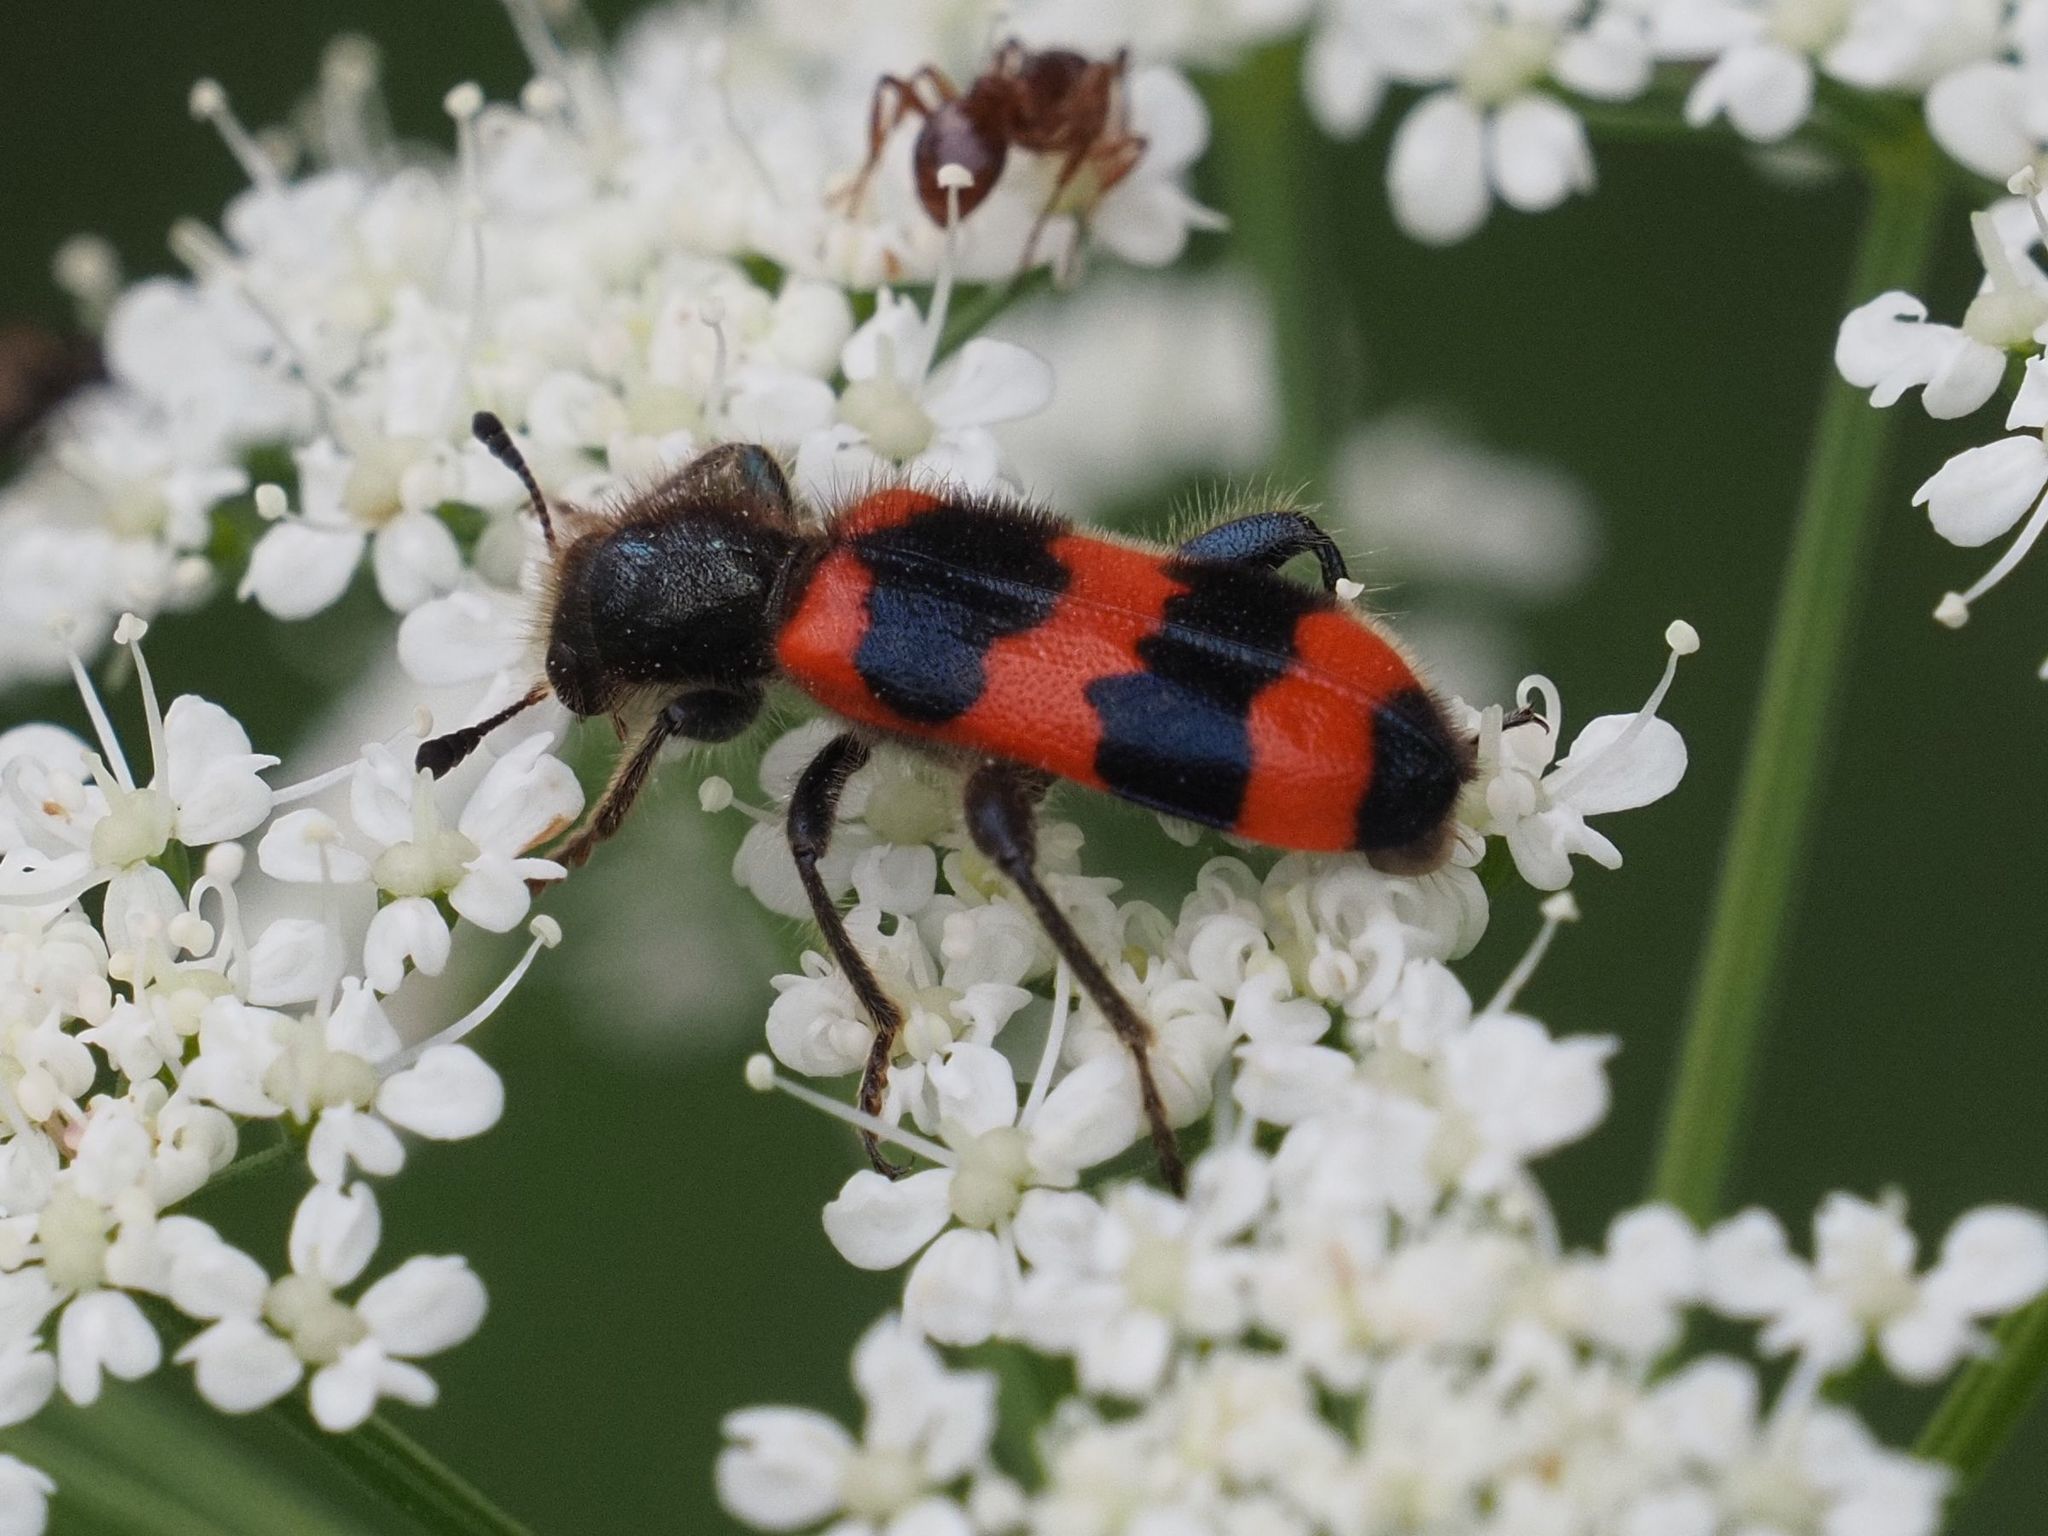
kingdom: Animalia
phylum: Arthropoda
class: Insecta
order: Coleoptera
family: Cleridae
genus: Trichodes
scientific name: Trichodes apiarius
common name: Bee-eating beetle
